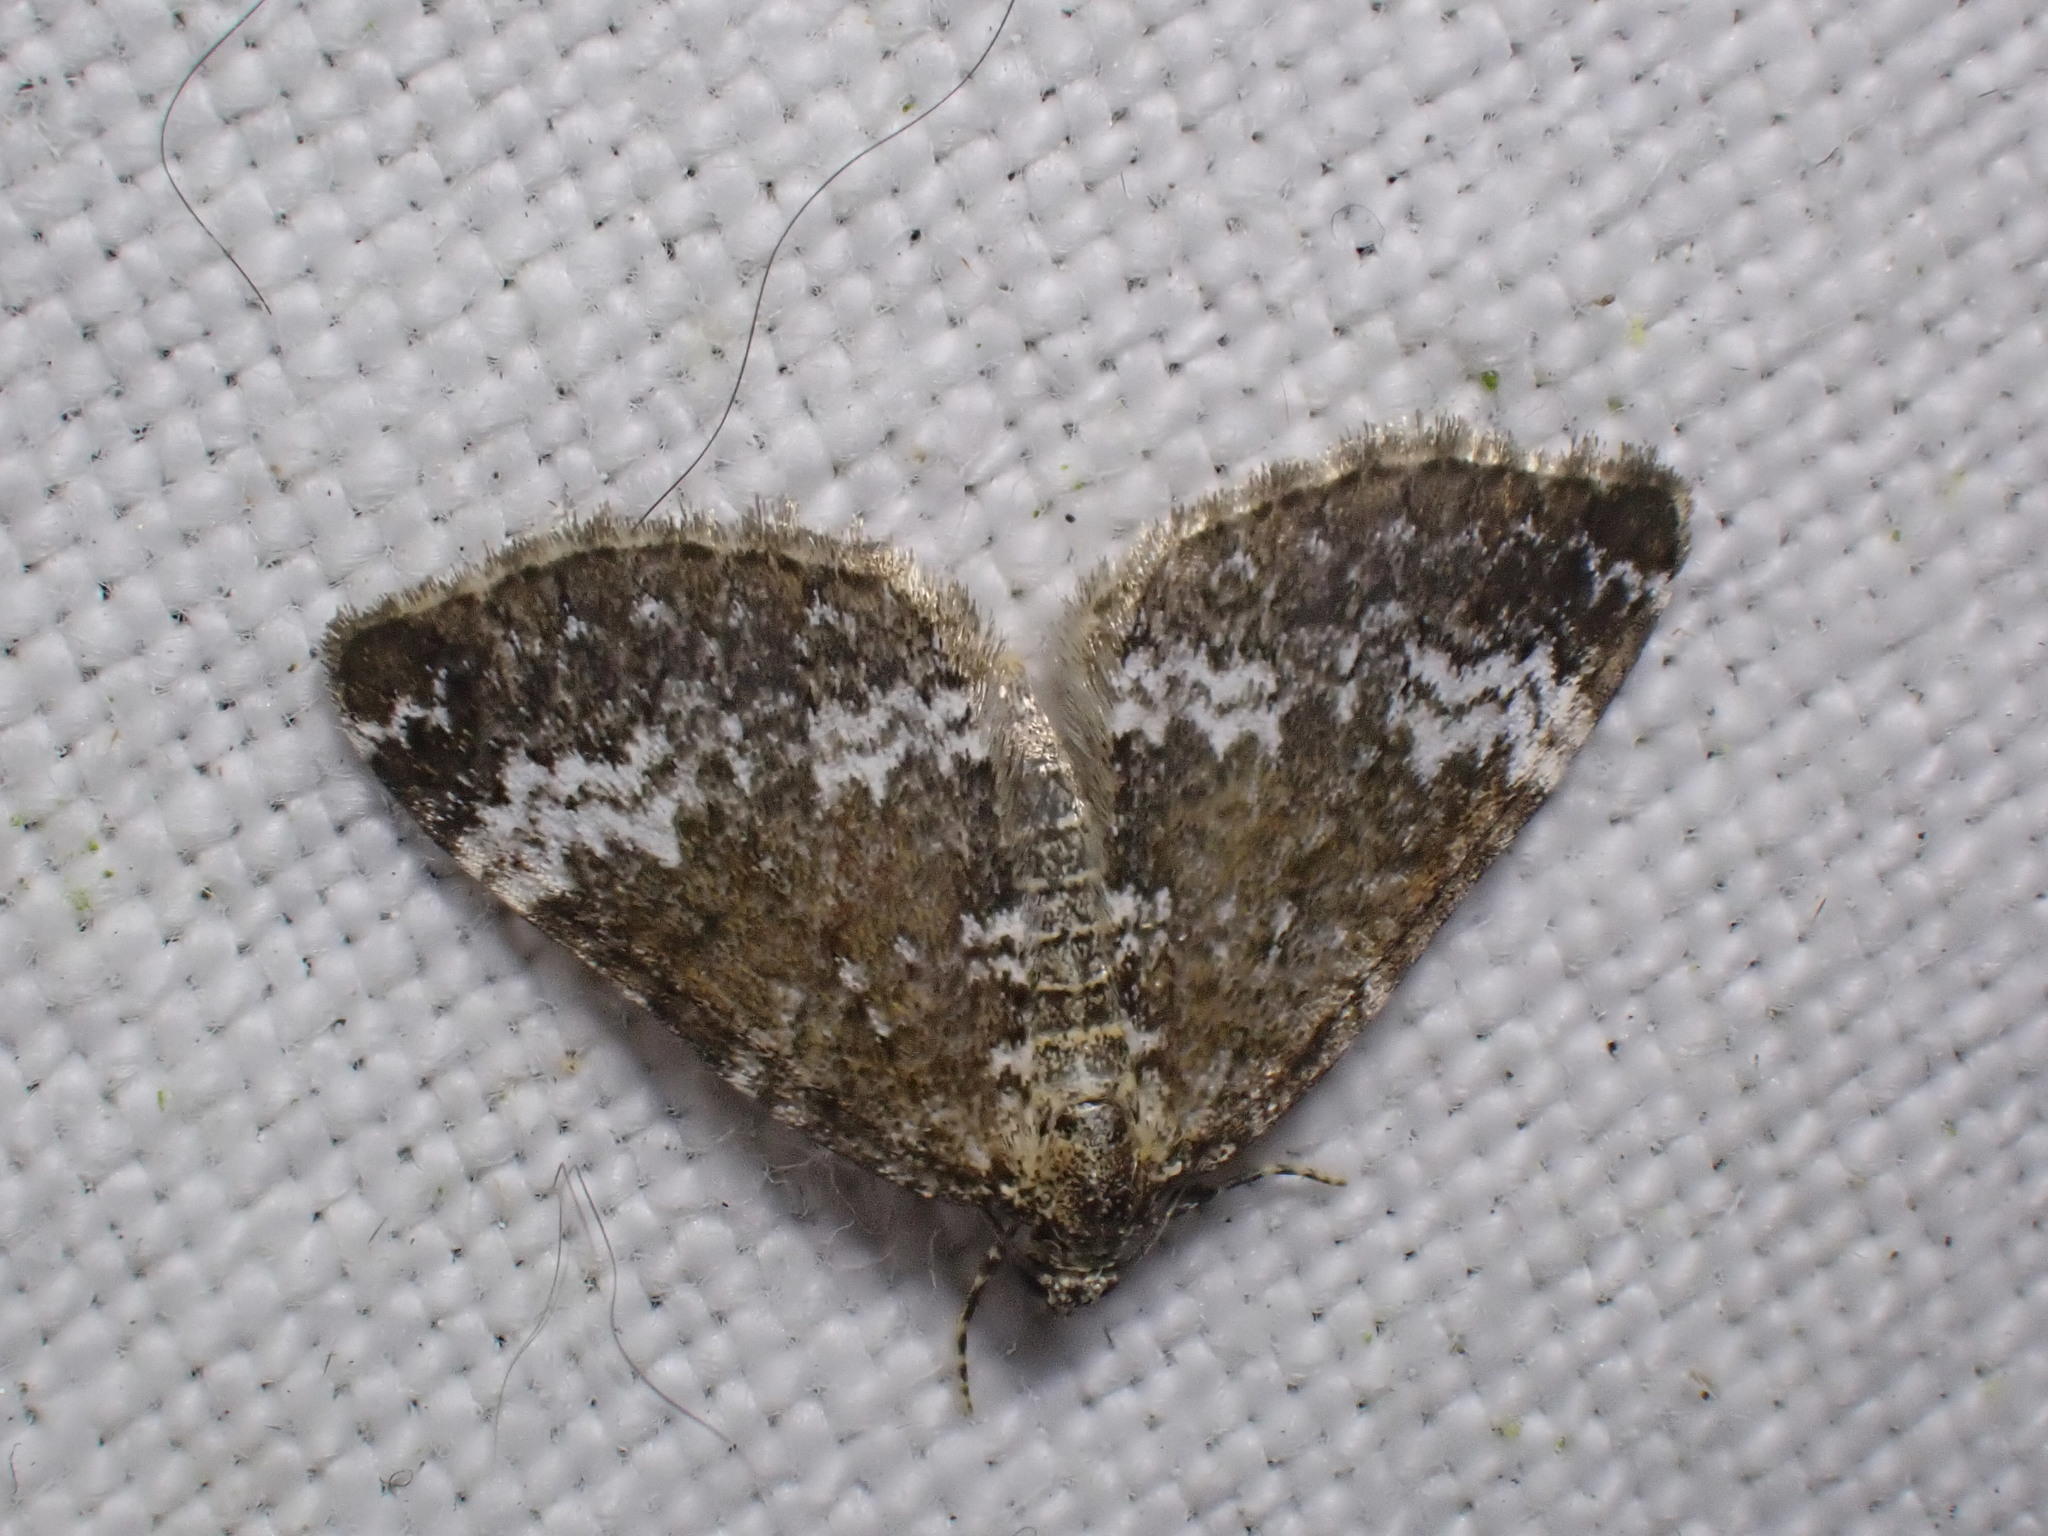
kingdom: Animalia
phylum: Arthropoda
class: Insecta
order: Lepidoptera
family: Geometridae
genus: Perizoma
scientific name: Perizoma alchemillata
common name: Small rivulet
